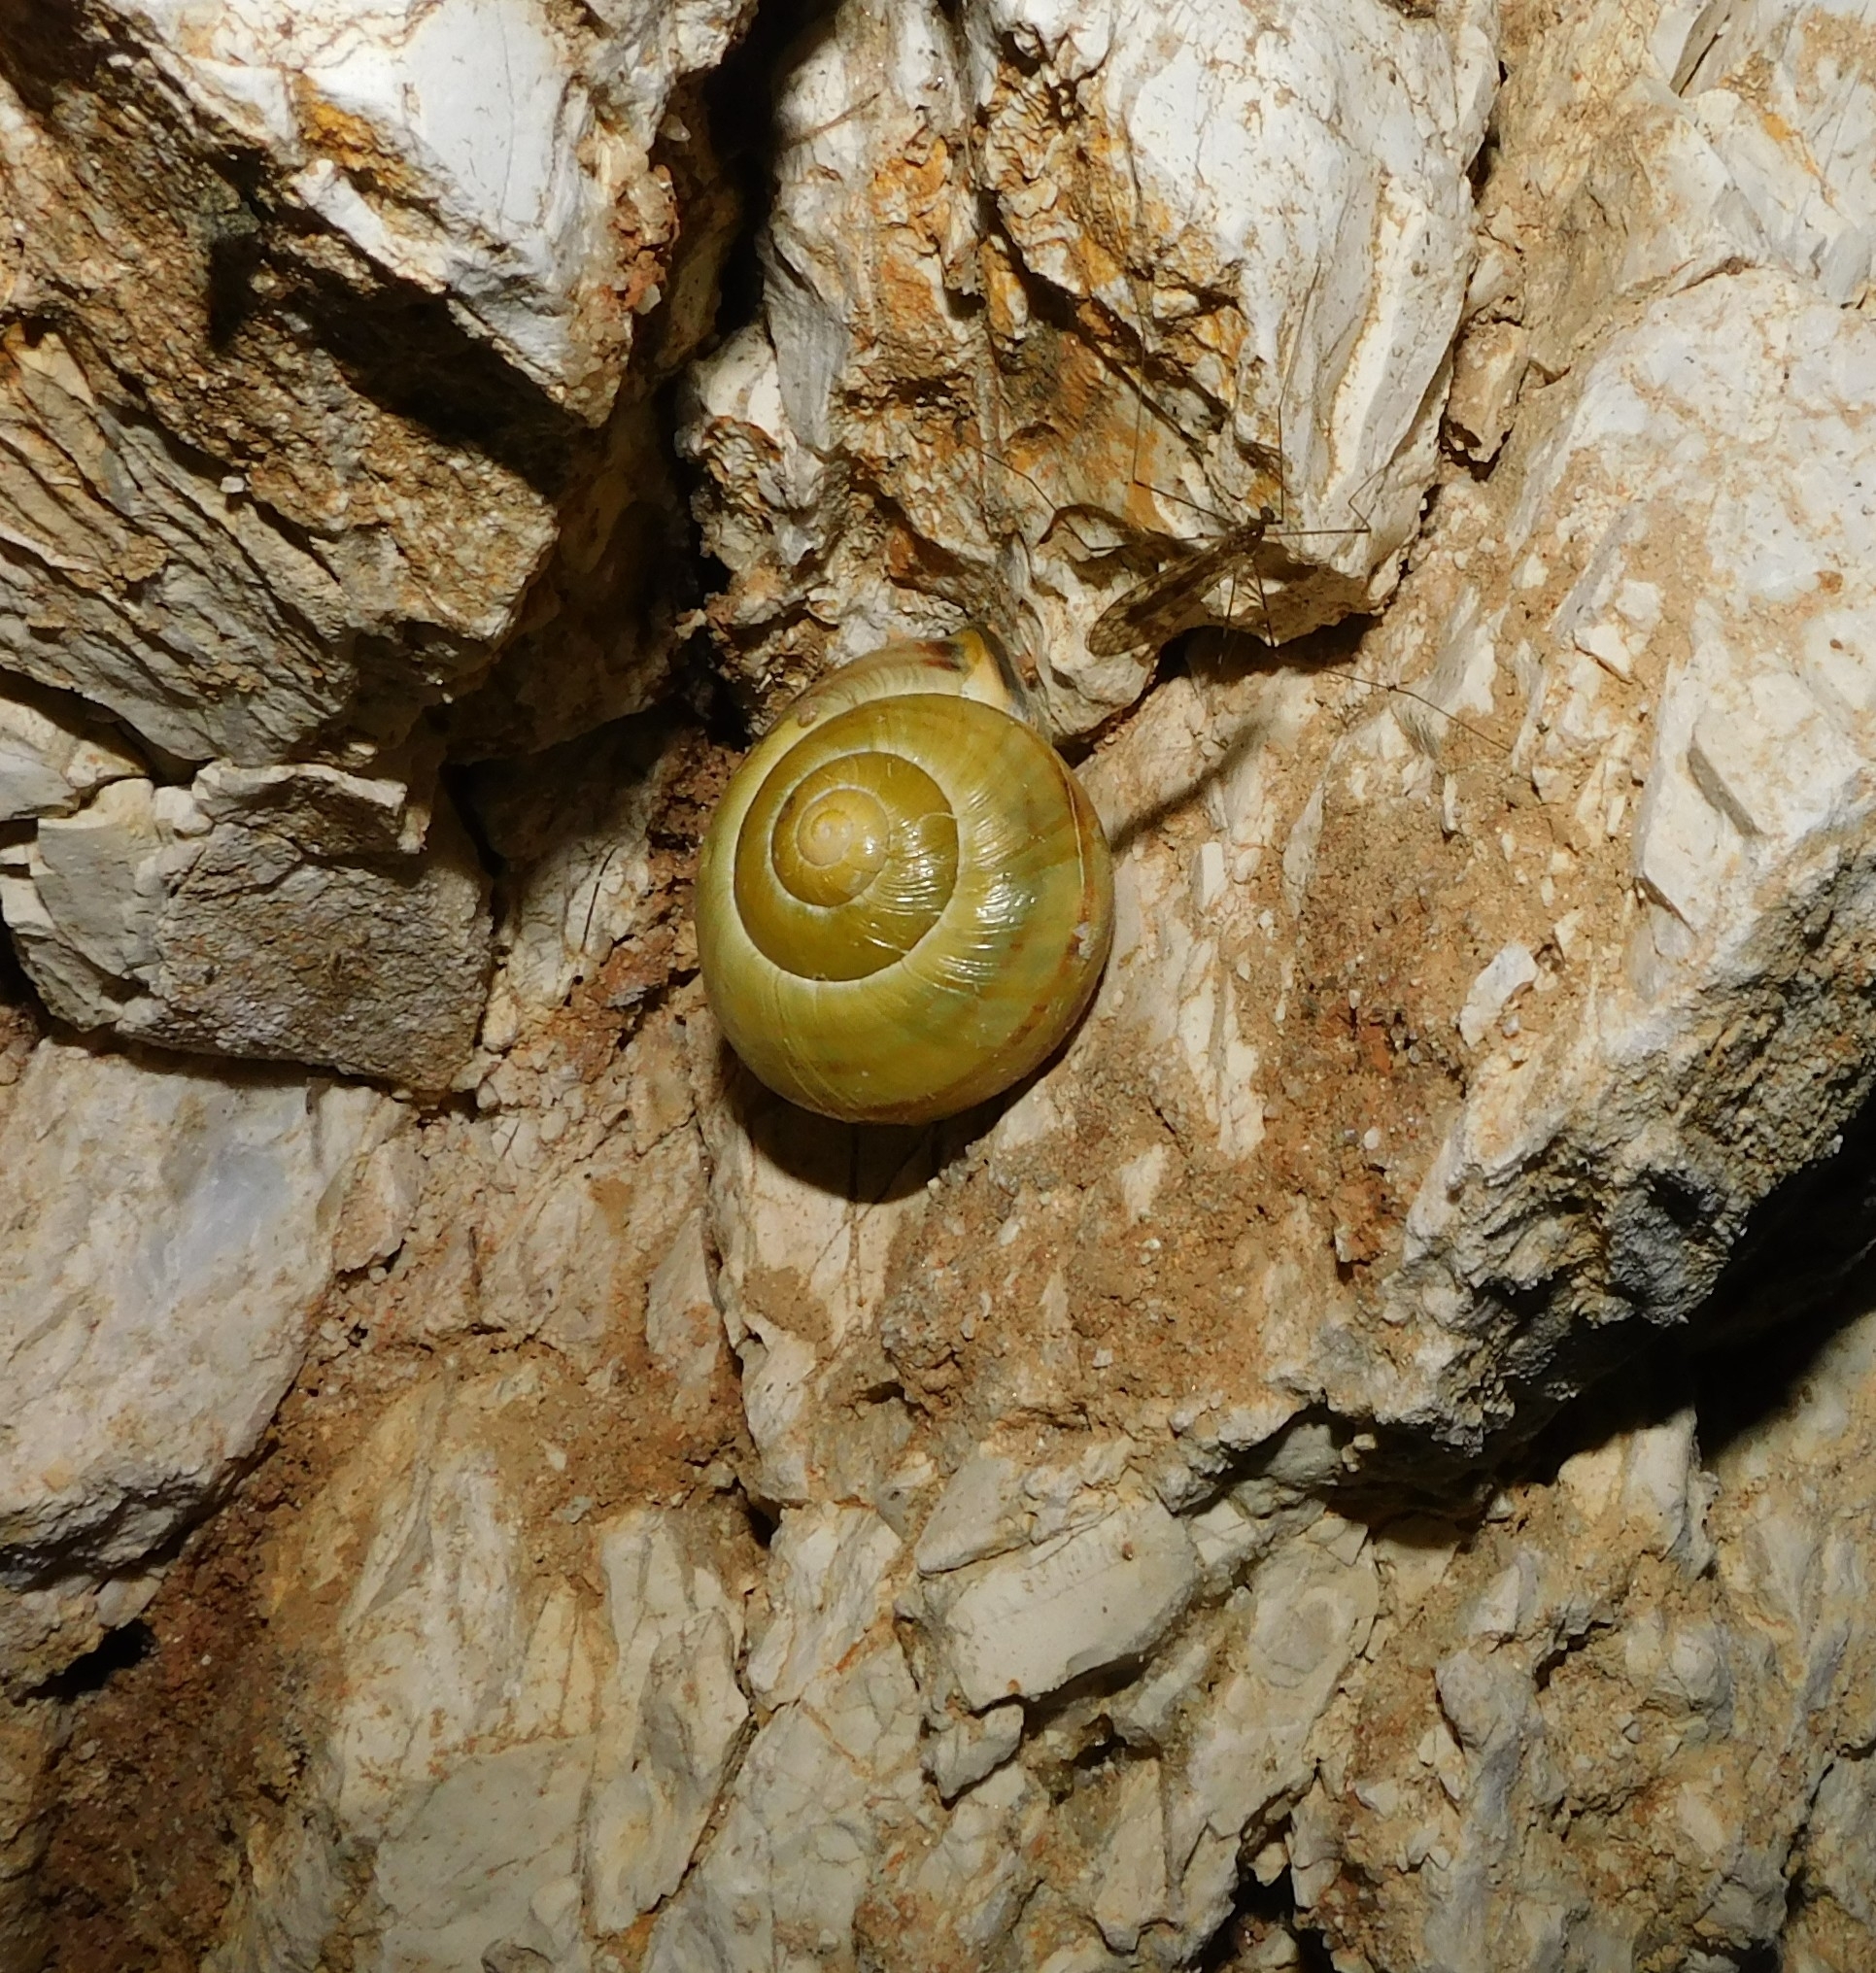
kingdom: Animalia
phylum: Mollusca
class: Gastropoda
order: Stylommatophora
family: Helicidae
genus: Cepaea
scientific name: Cepaea nemoralis
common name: Grovesnail
